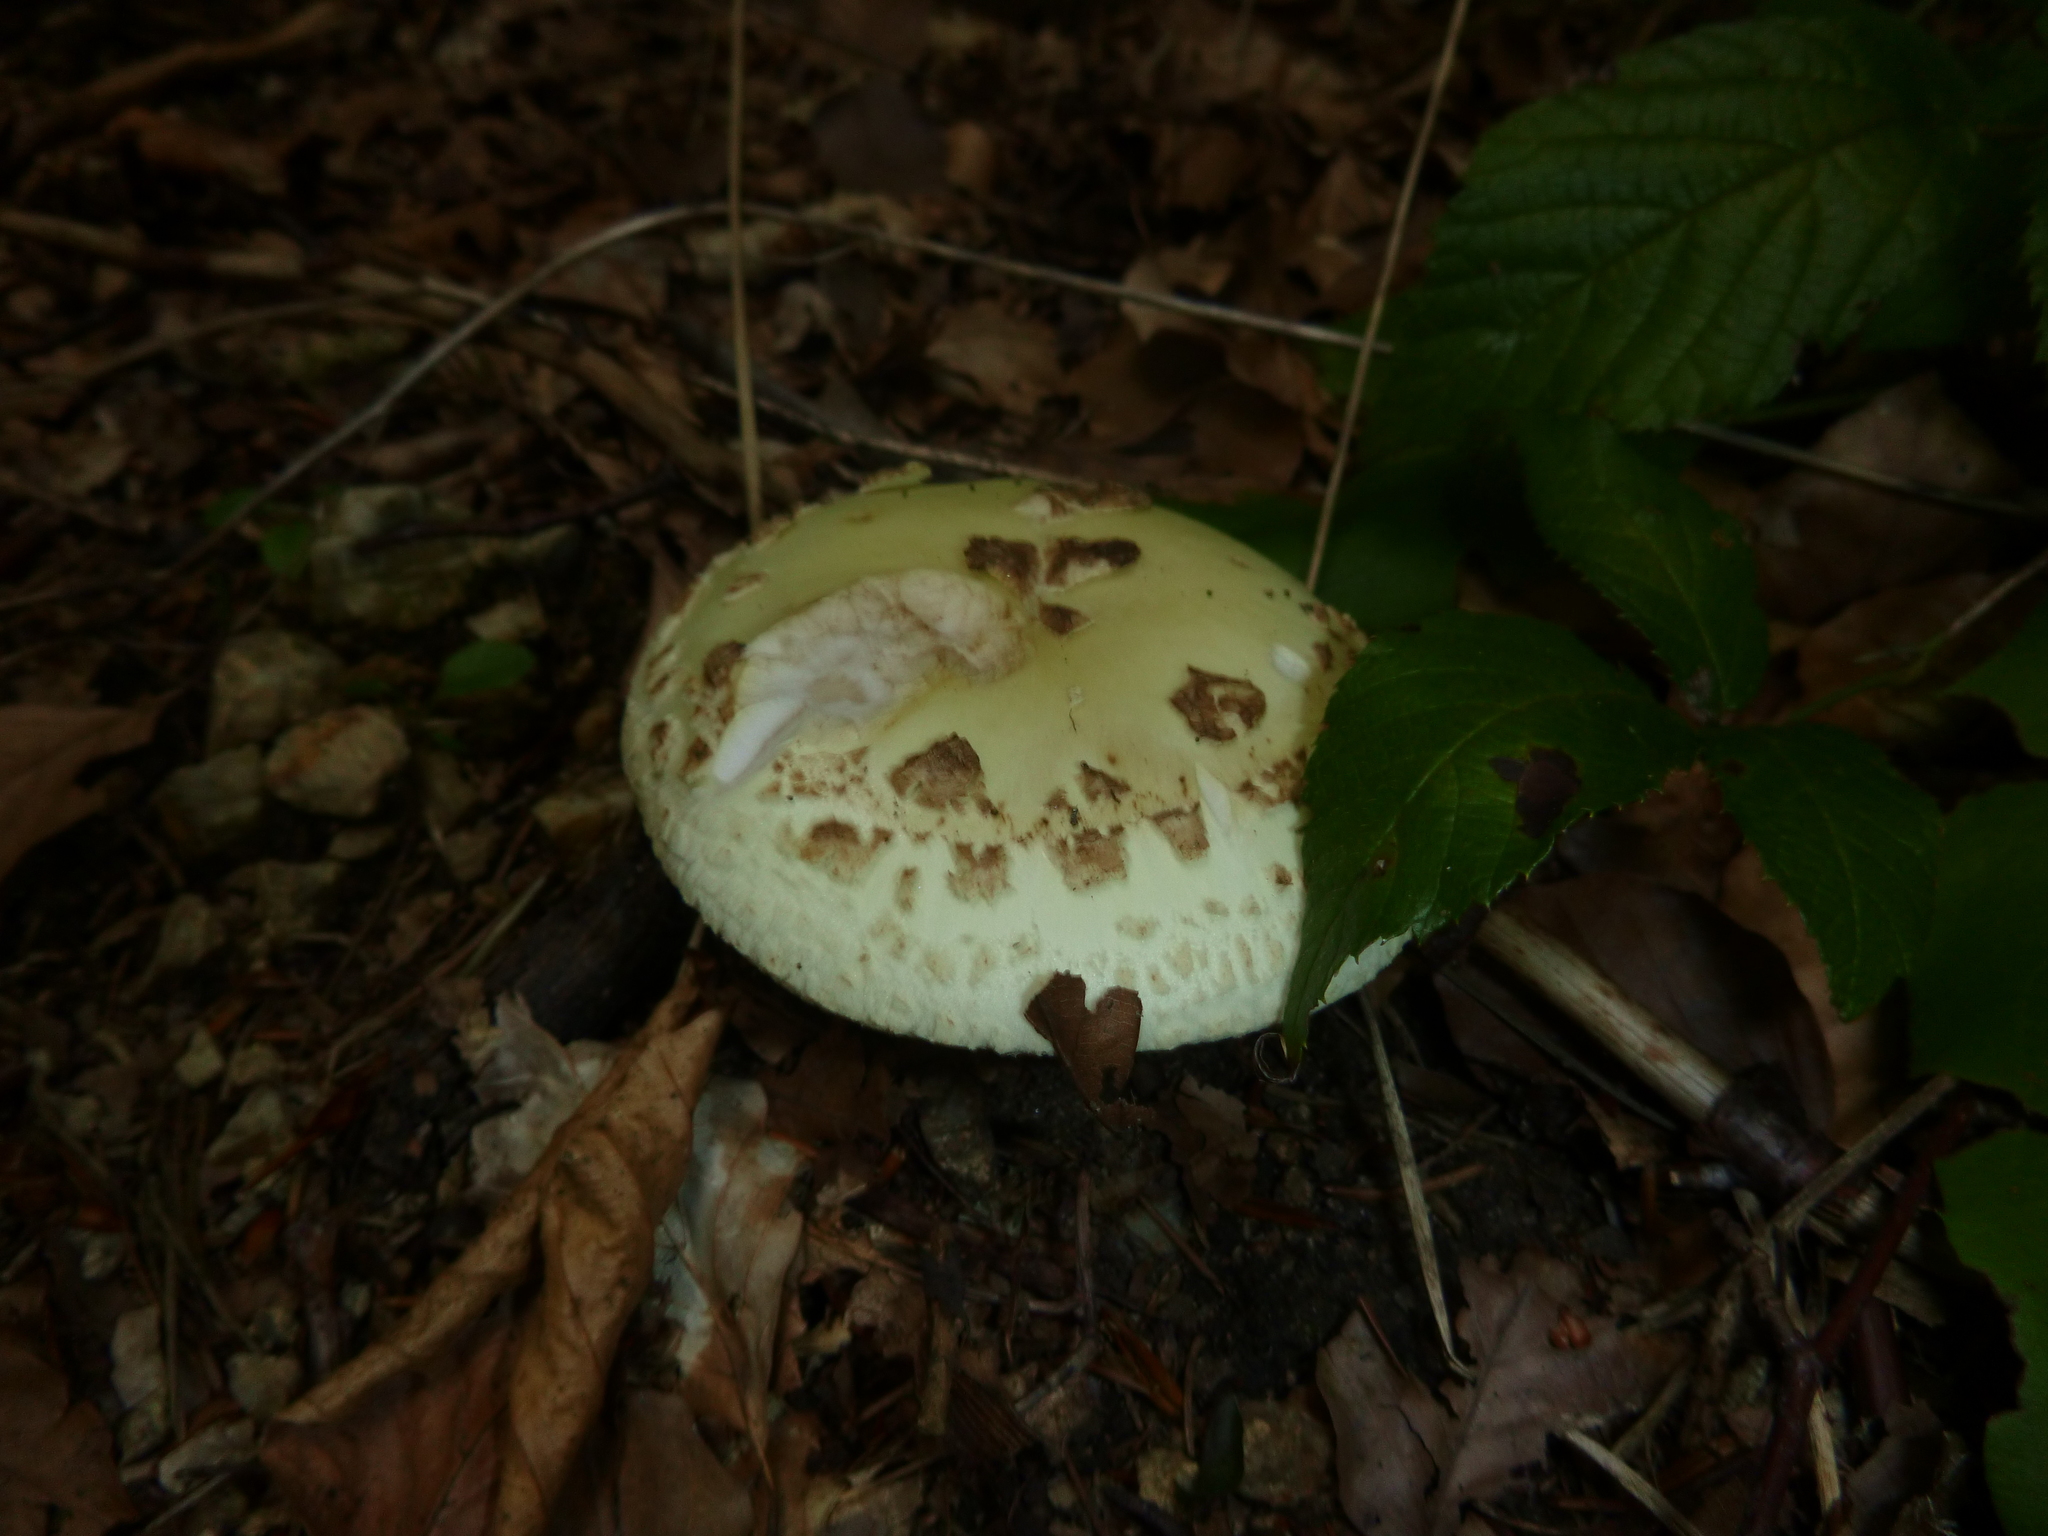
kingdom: Fungi
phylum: Basidiomycota
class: Agaricomycetes
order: Agaricales
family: Amanitaceae
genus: Amanita
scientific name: Amanita citrina
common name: False death-cap
